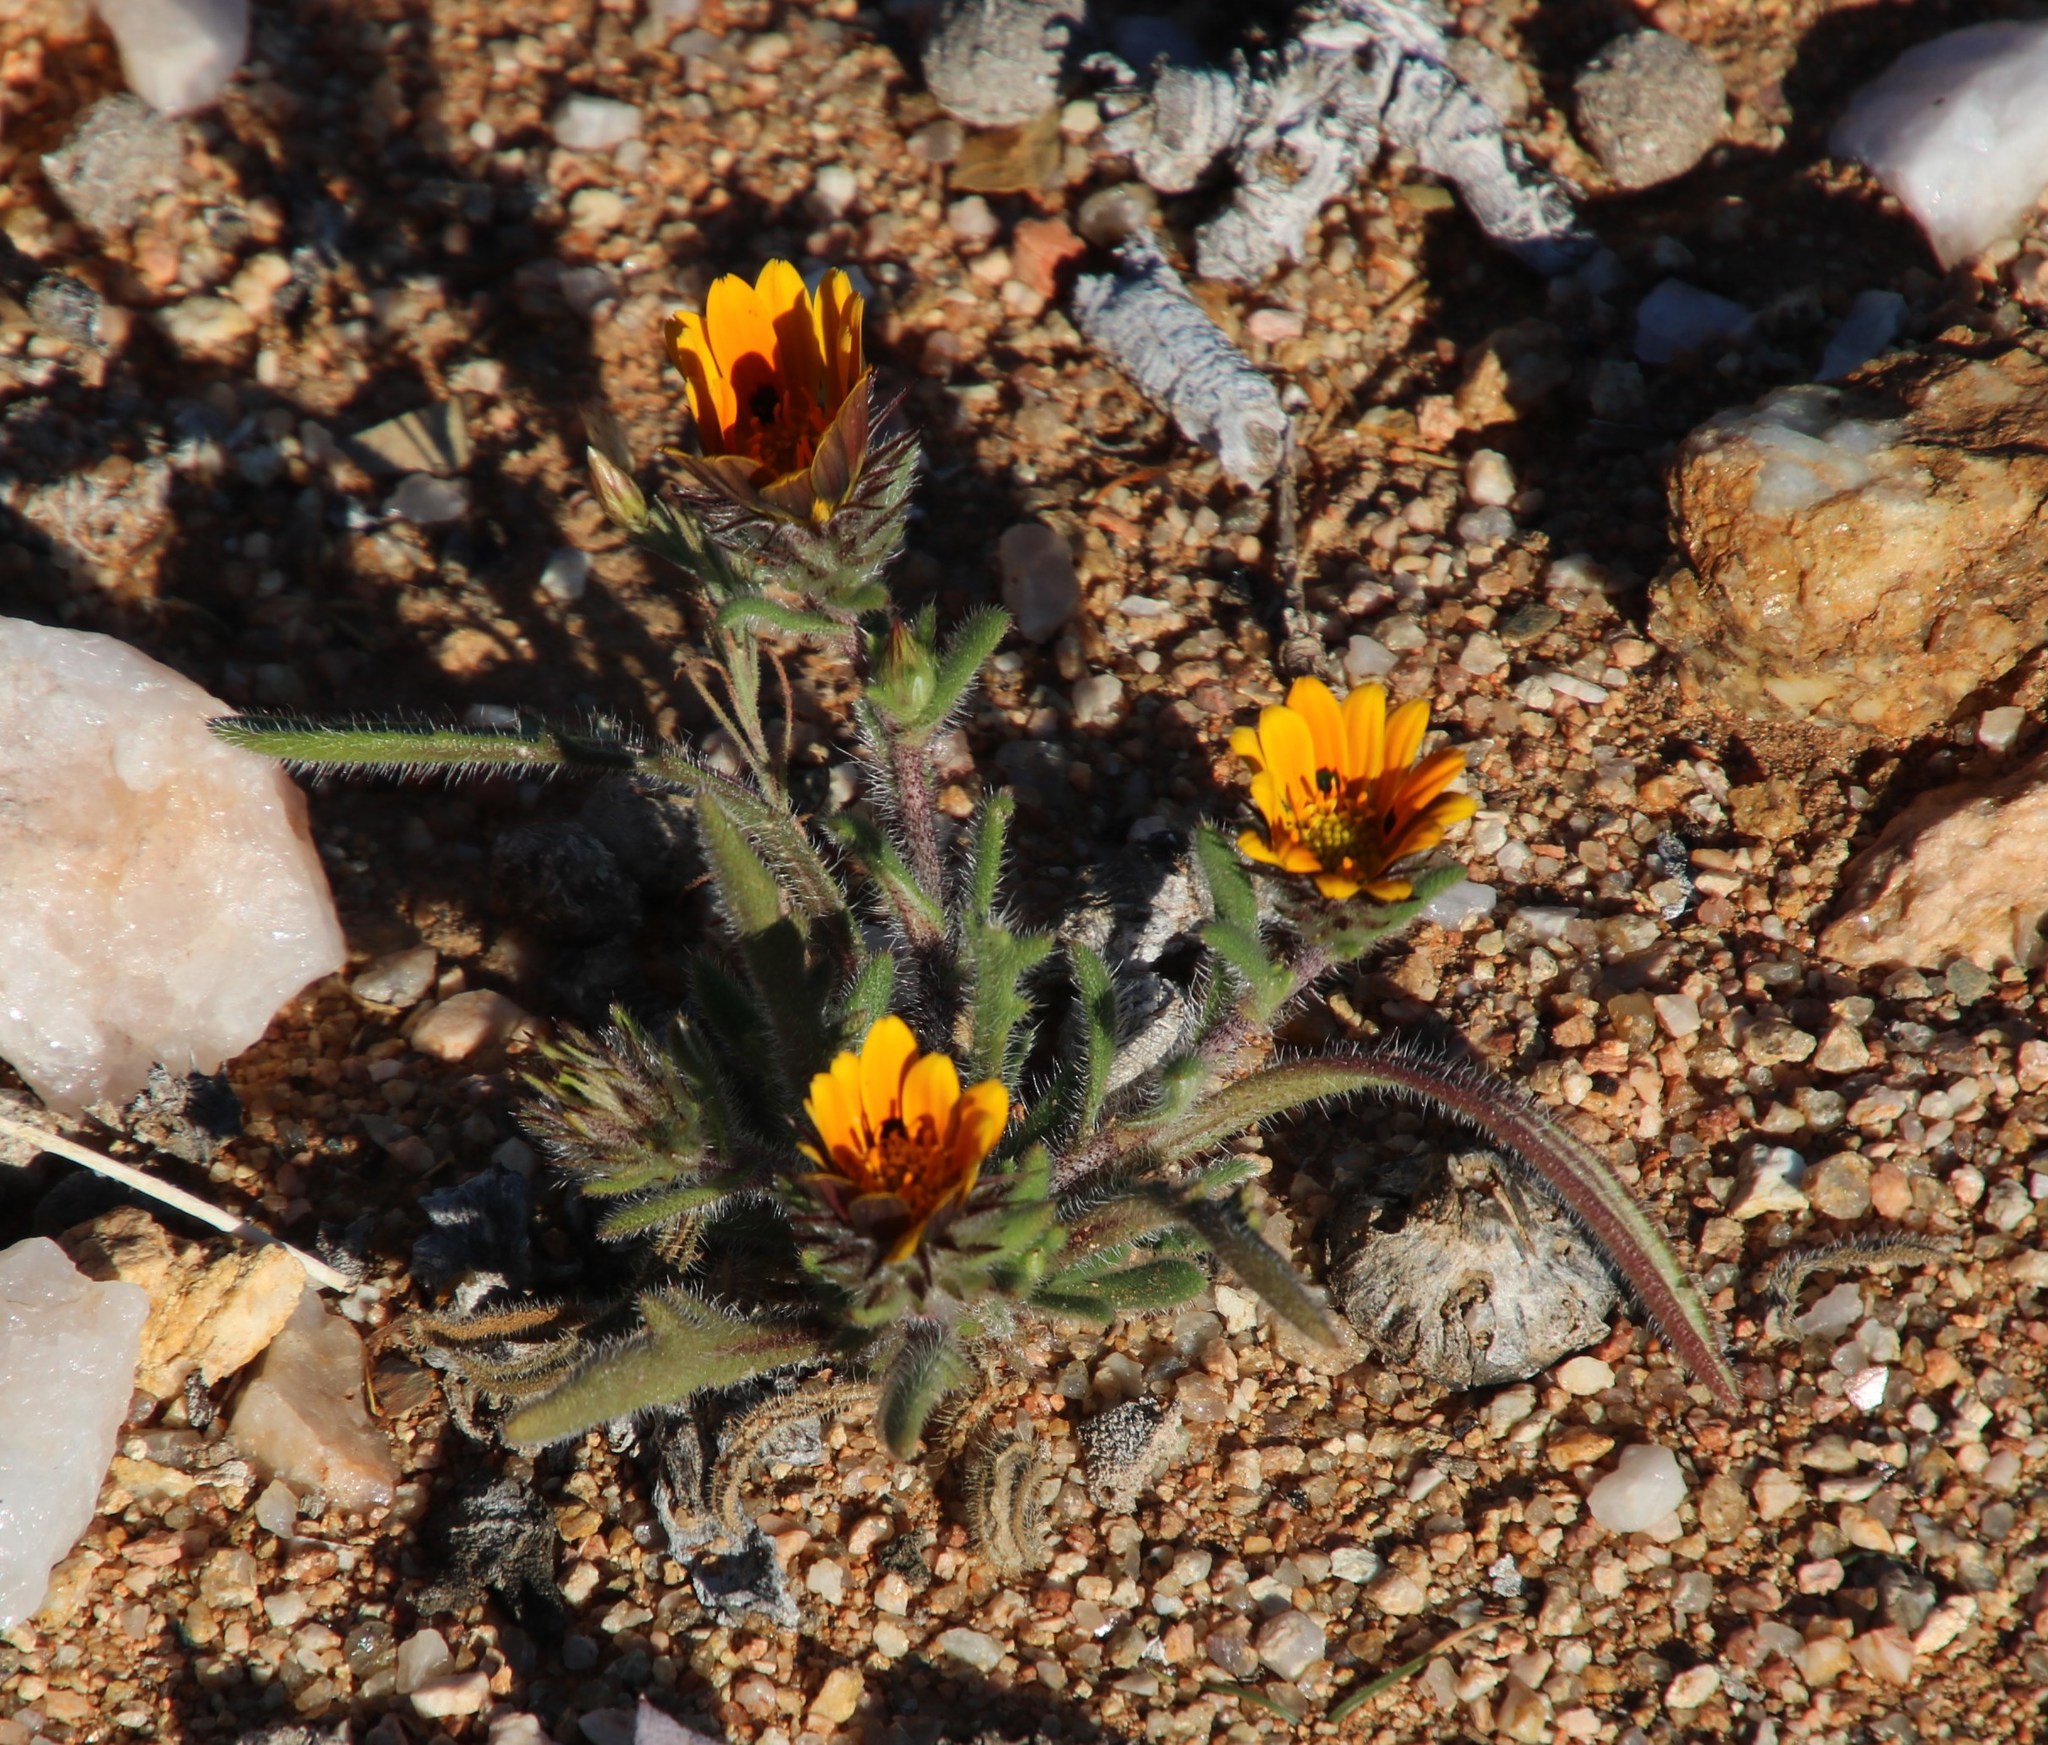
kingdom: Plantae
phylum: Tracheophyta
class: Magnoliopsida
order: Asterales
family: Asteraceae
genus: Gorteria
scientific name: Gorteria diffusa
